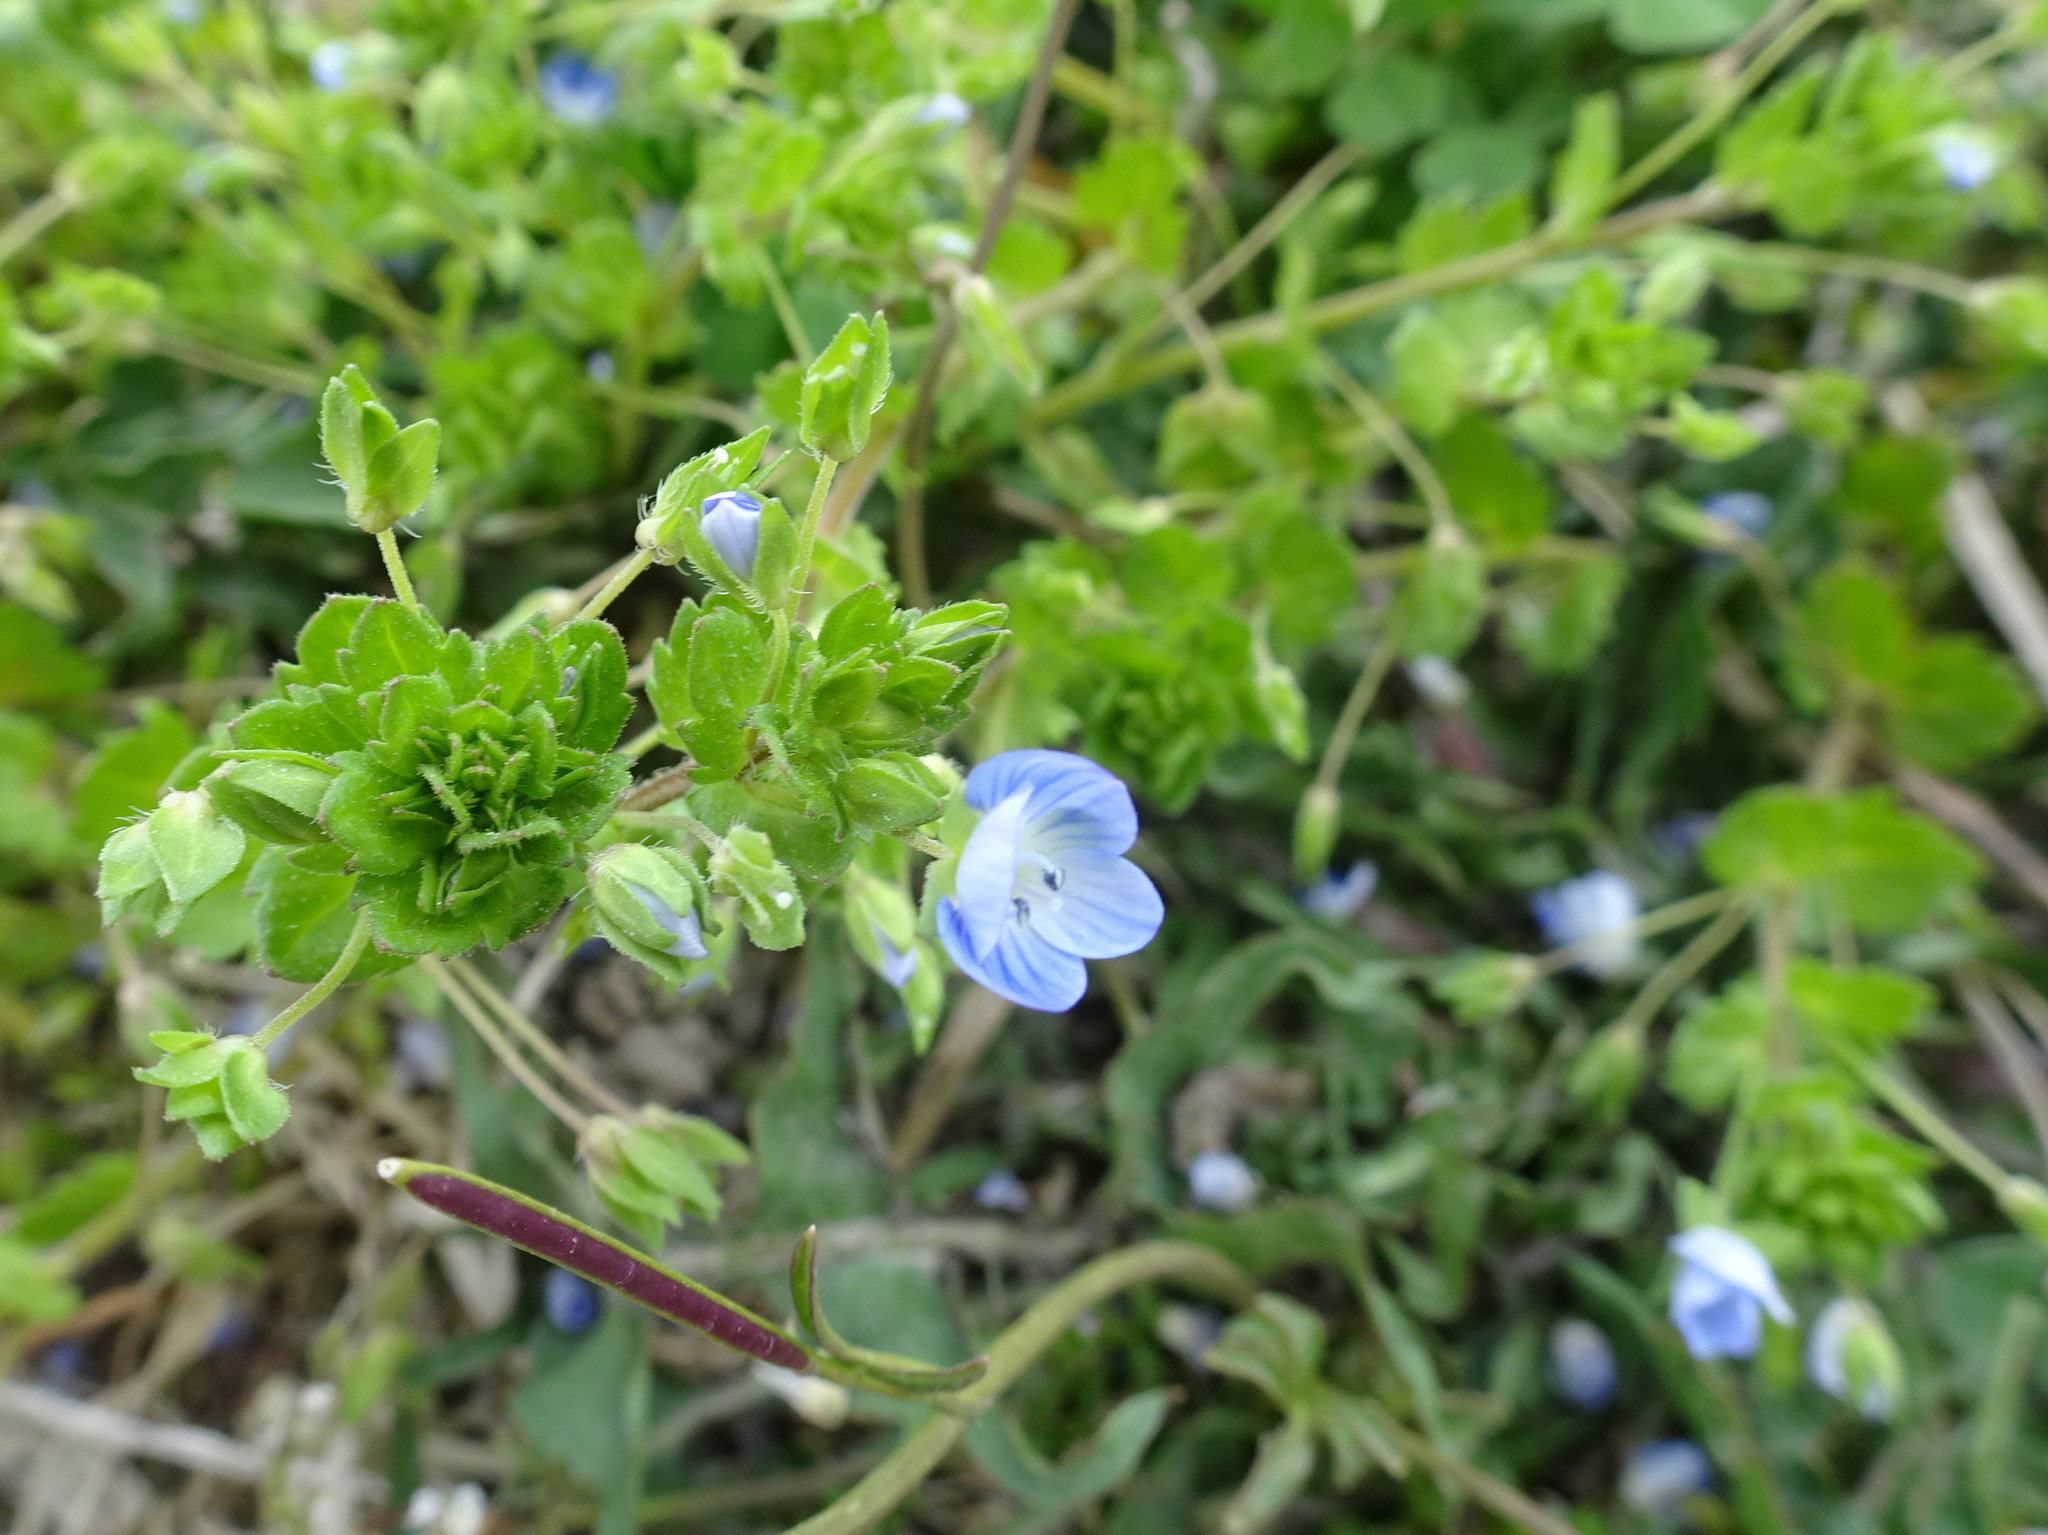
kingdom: Plantae
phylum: Tracheophyta
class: Magnoliopsida
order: Lamiales
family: Plantaginaceae
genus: Veronica
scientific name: Veronica persica
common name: Common field-speedwell
